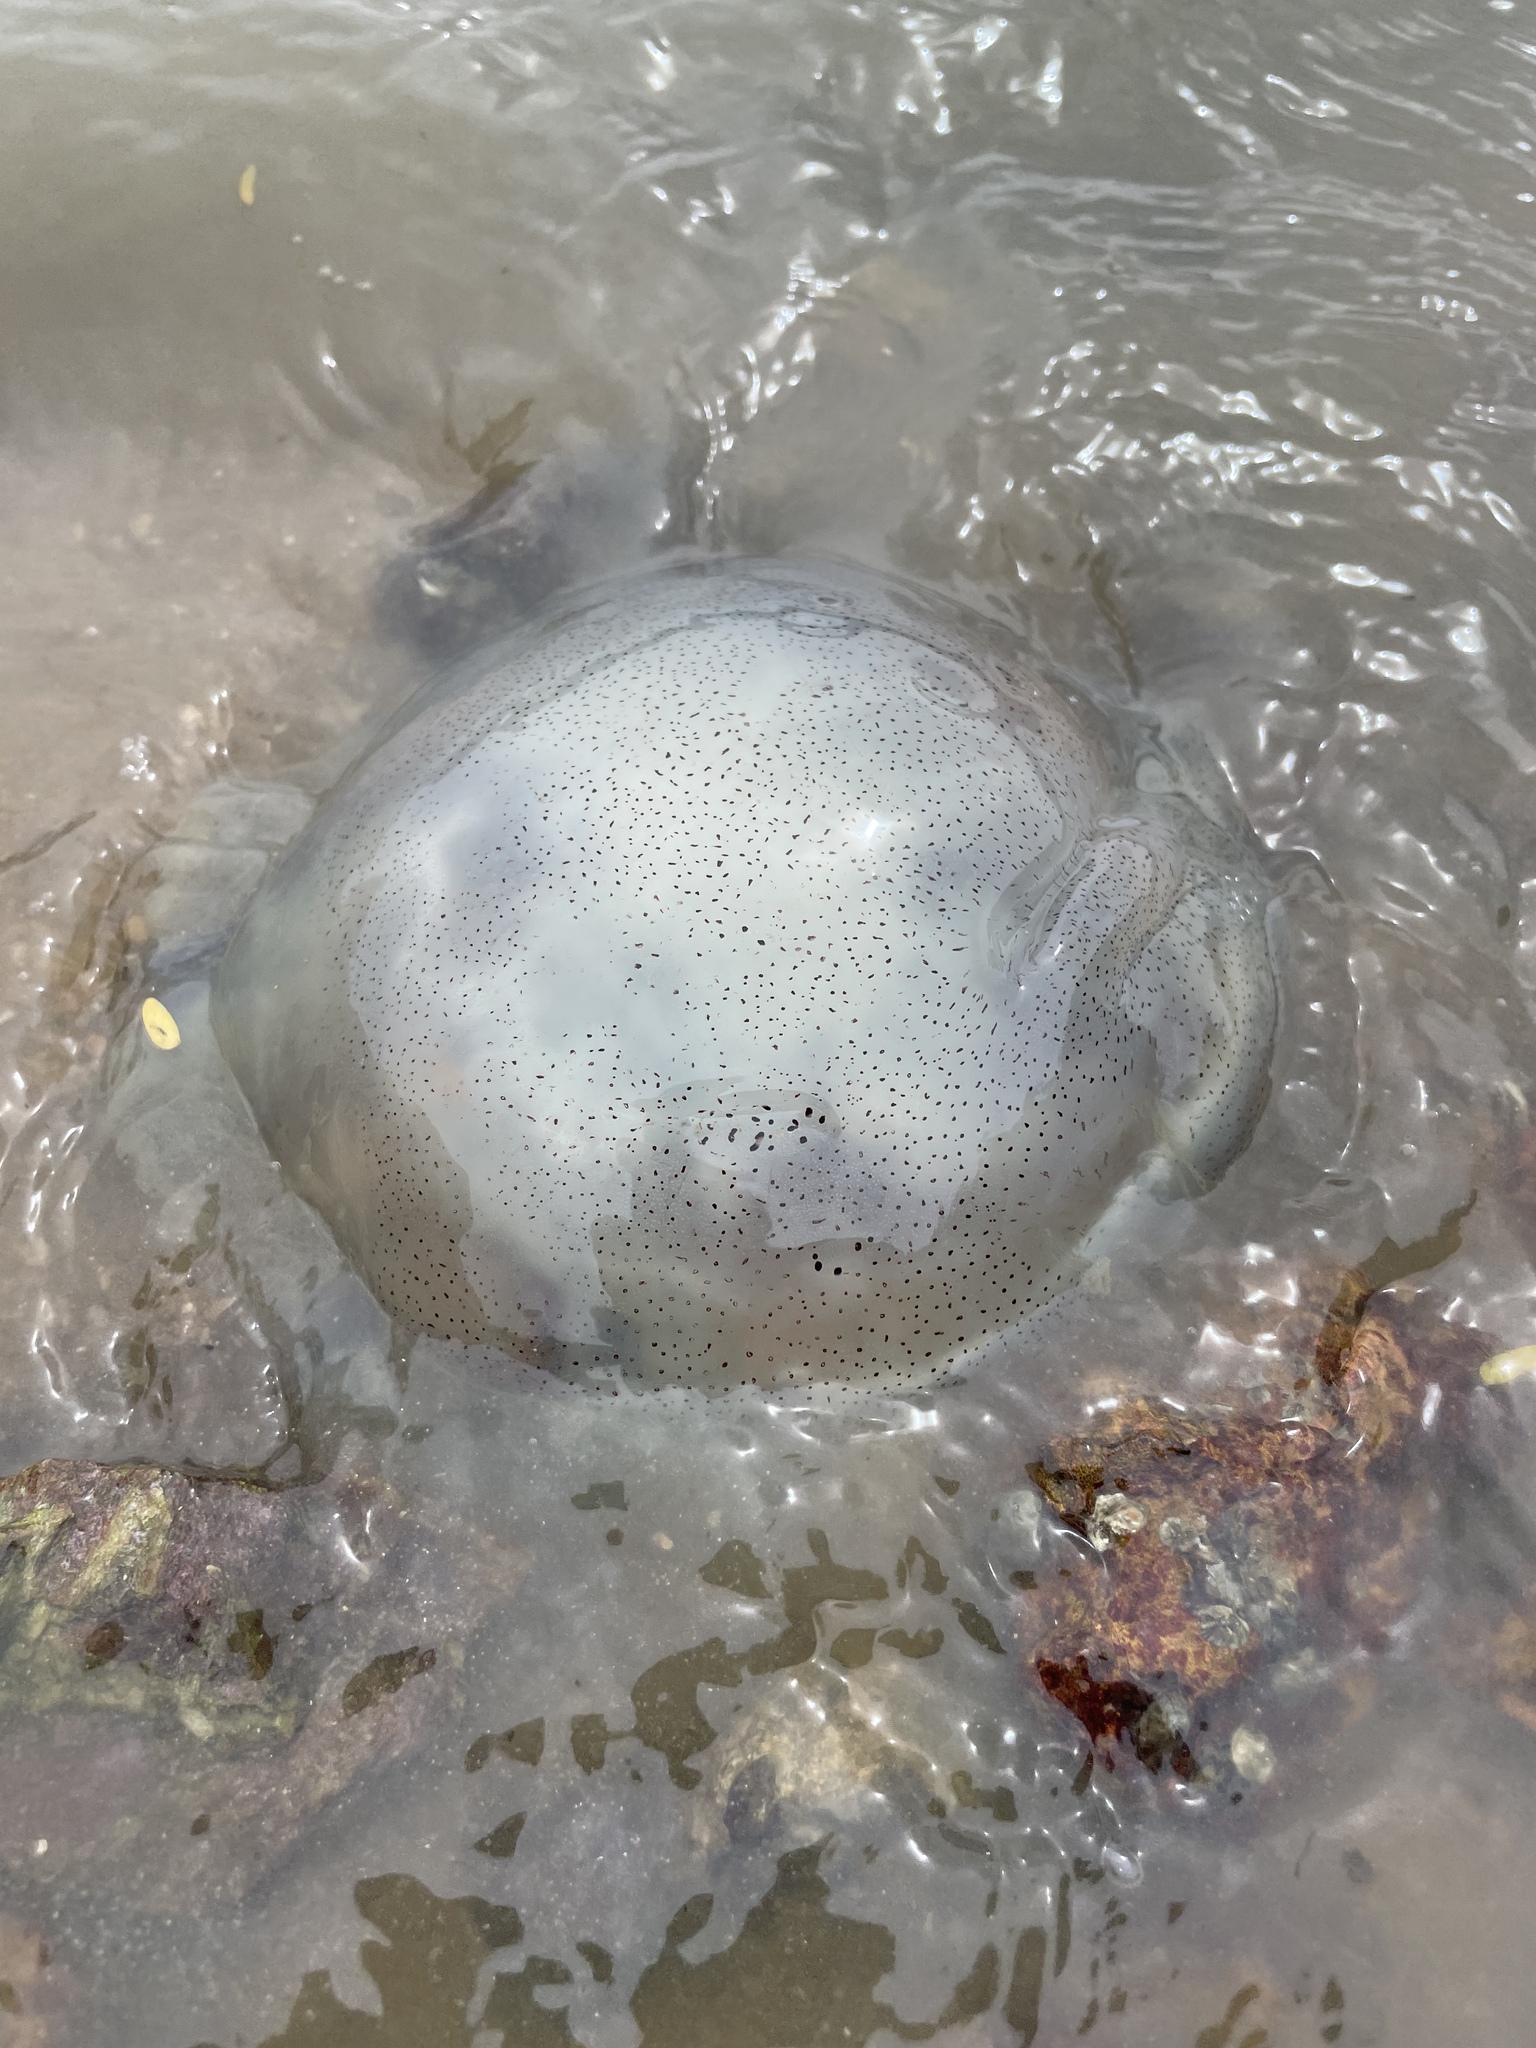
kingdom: Animalia
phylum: Cnidaria
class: Scyphozoa
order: Rhizostomeae
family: Rhizostomatidae
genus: Rhopilema
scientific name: Rhopilema hispidum
